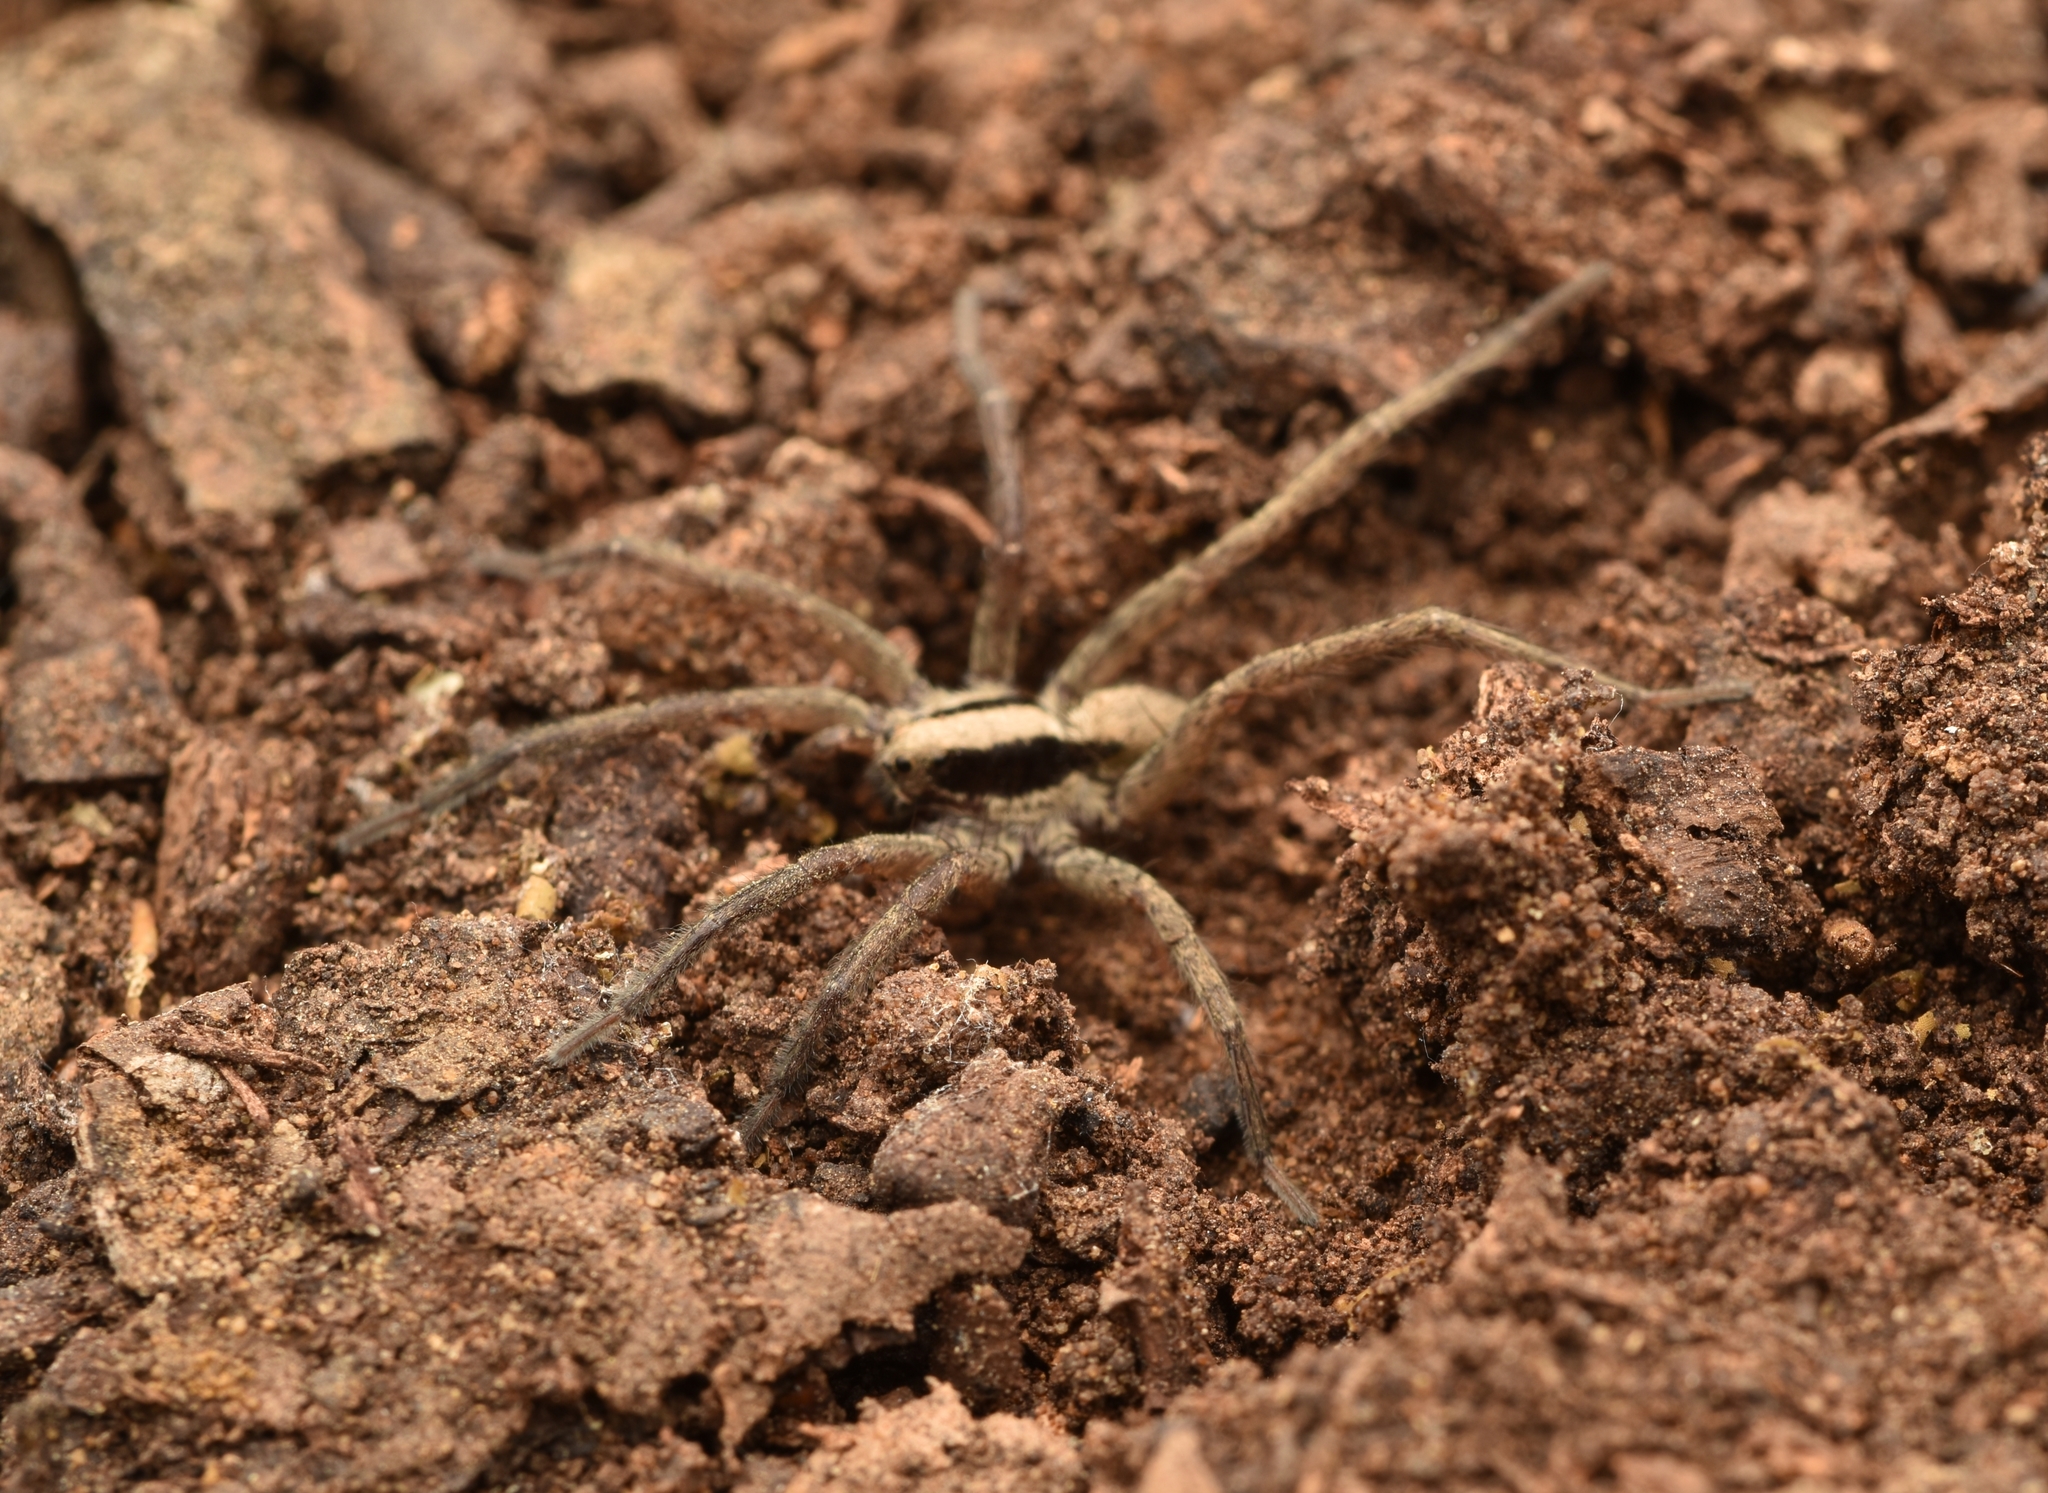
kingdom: Animalia
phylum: Arthropoda
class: Arachnida
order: Araneae
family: Lycosidae
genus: Schizocosa
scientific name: Schizocosa rovneri
